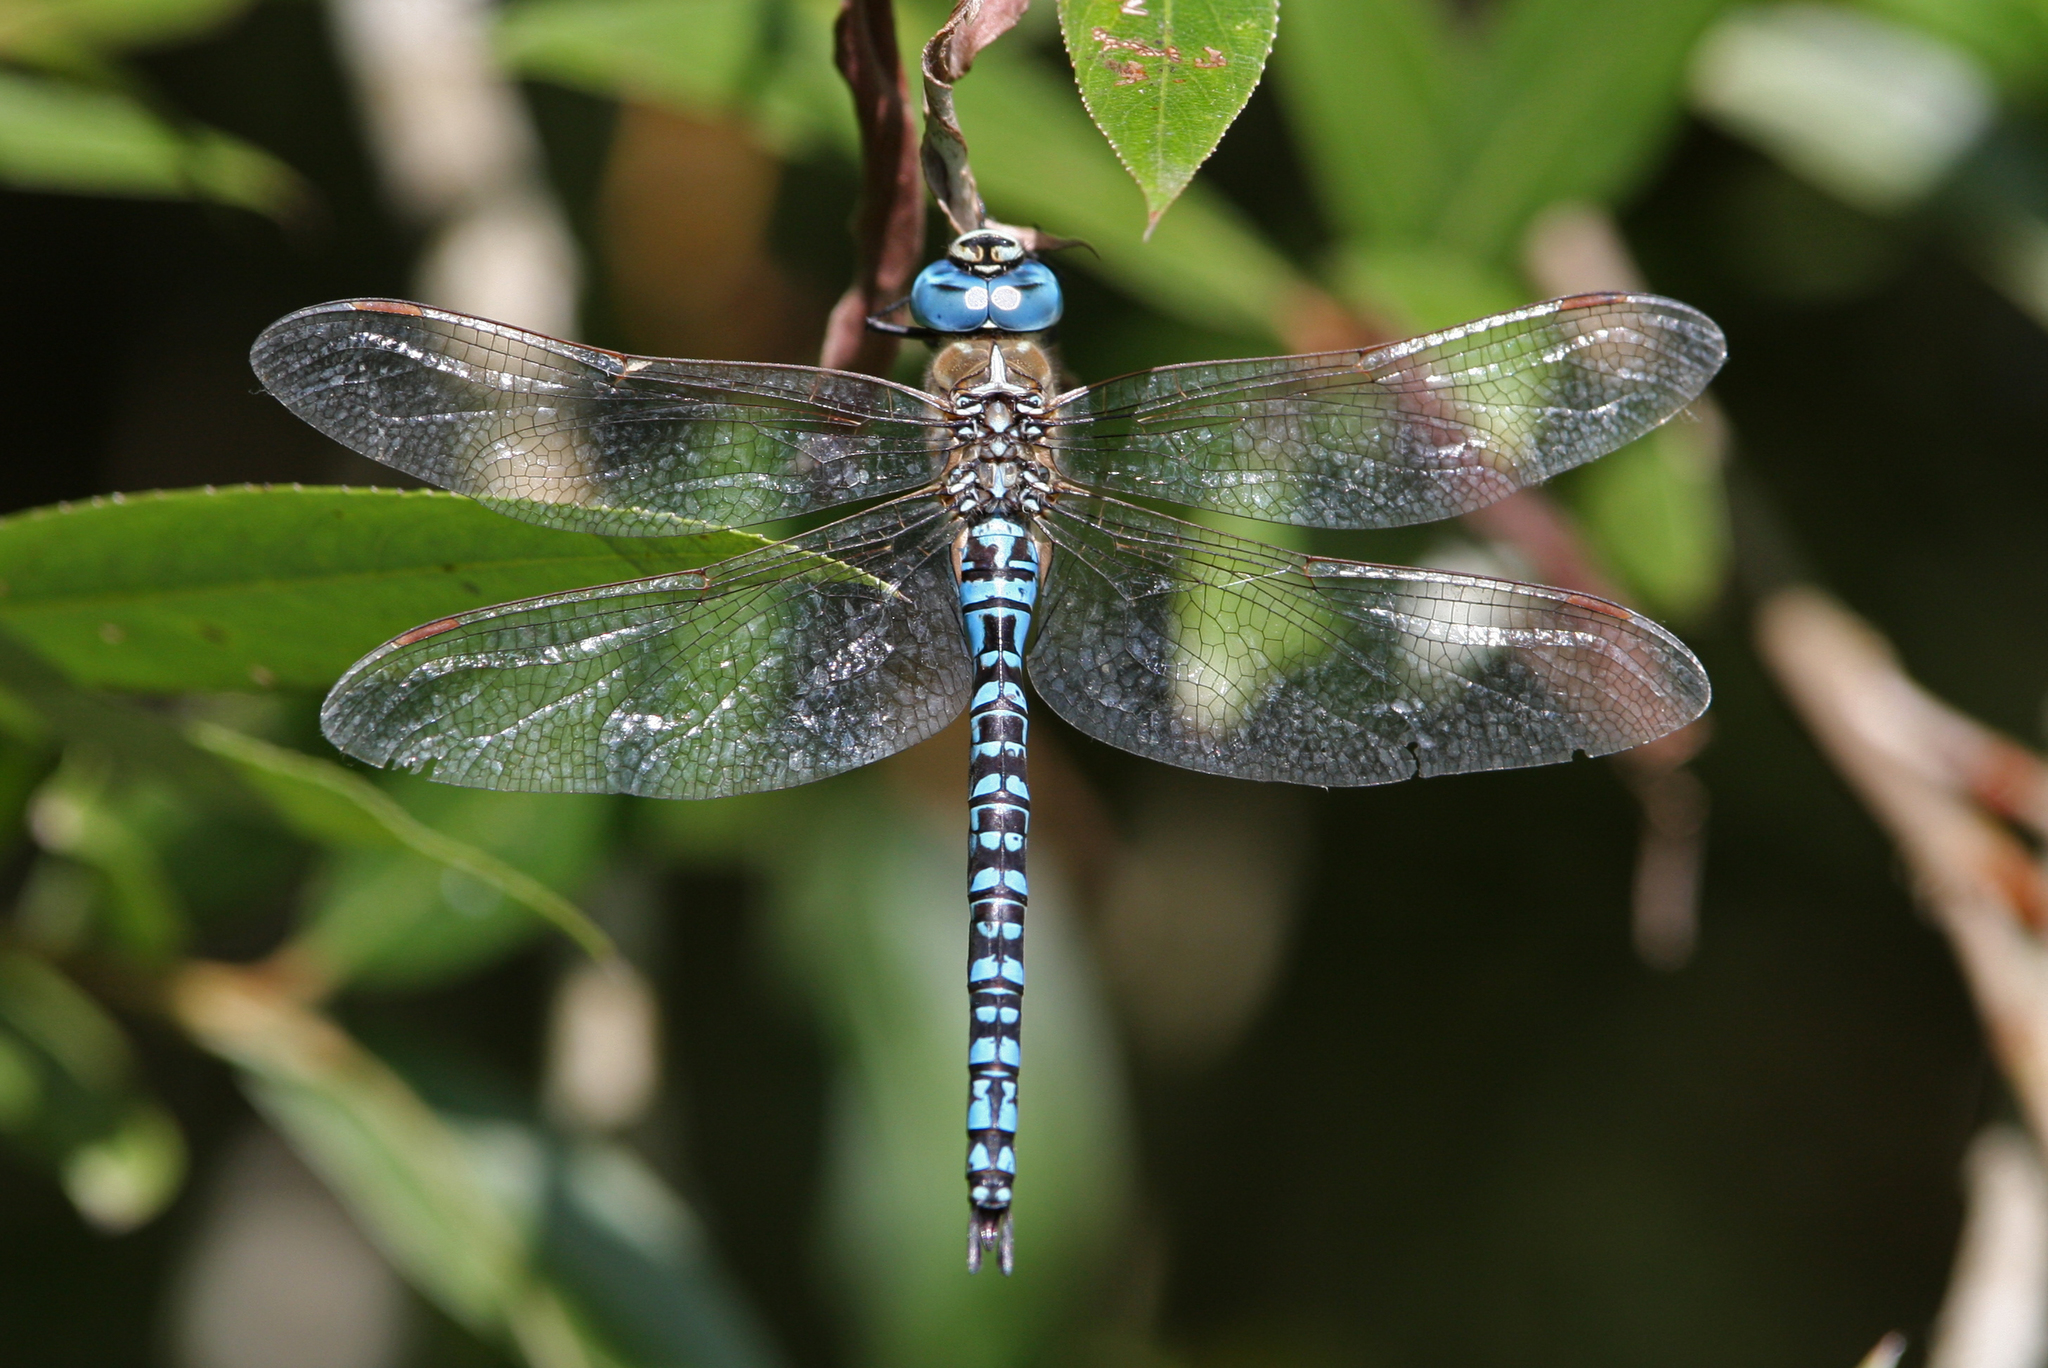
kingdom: Animalia
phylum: Arthropoda
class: Insecta
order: Odonata
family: Aeshnidae
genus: Aeshna
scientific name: Aeshna affinis
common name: Southern migrant hawker
